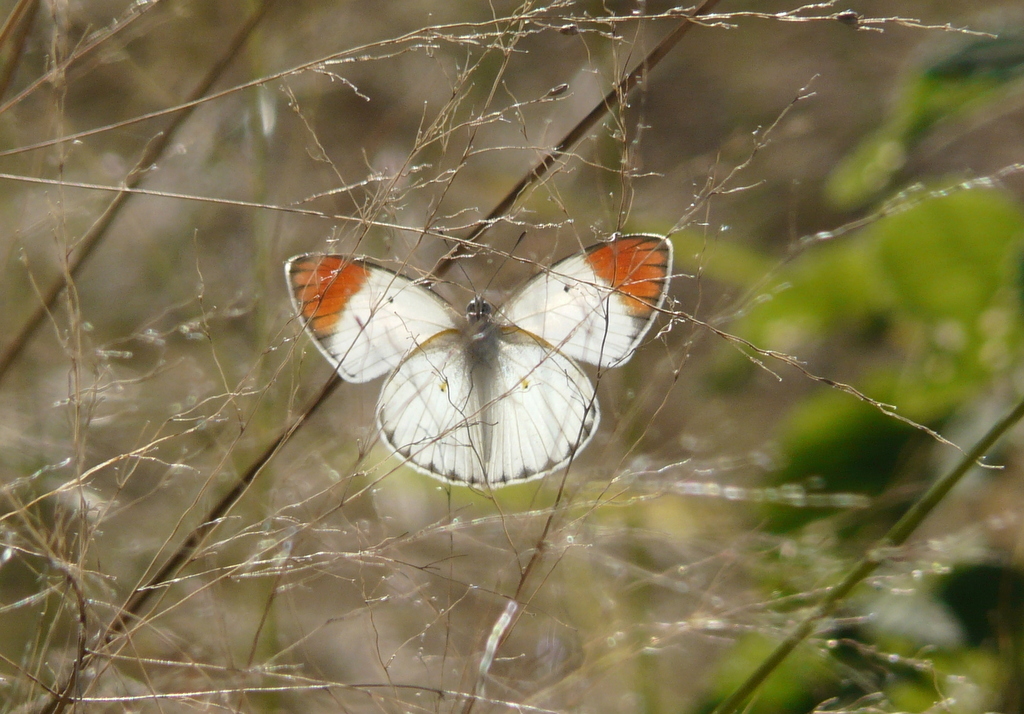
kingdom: Animalia
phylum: Arthropoda
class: Insecta
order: Lepidoptera
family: Pieridae
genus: Colotis
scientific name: Colotis antevippe
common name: Large orange tip
